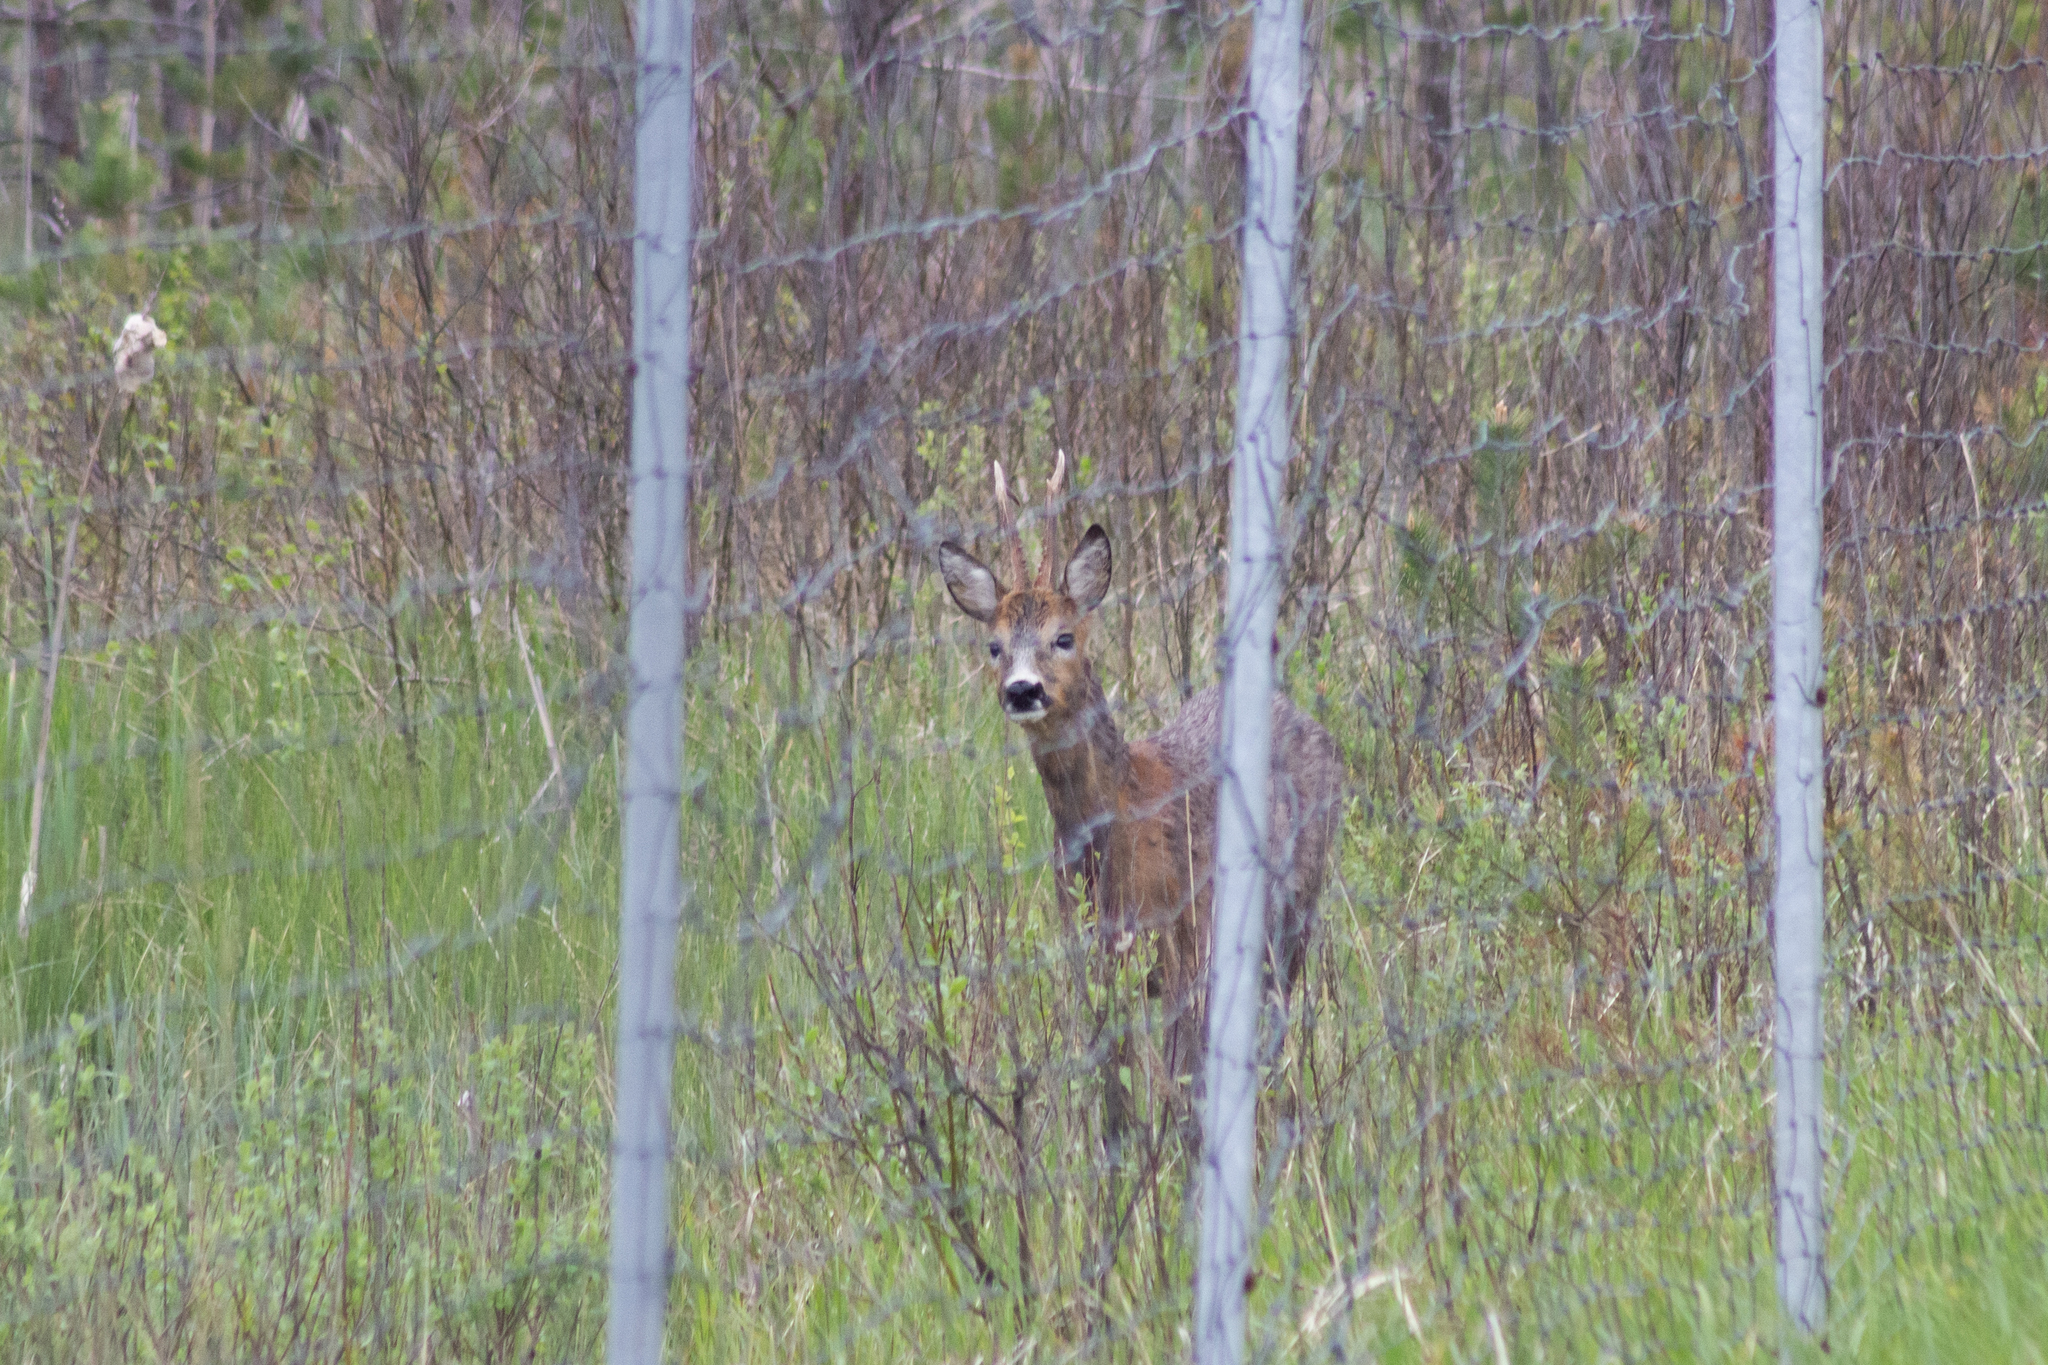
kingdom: Animalia
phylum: Chordata
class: Mammalia
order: Artiodactyla
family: Cervidae
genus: Capreolus
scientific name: Capreolus capreolus
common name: Western roe deer
